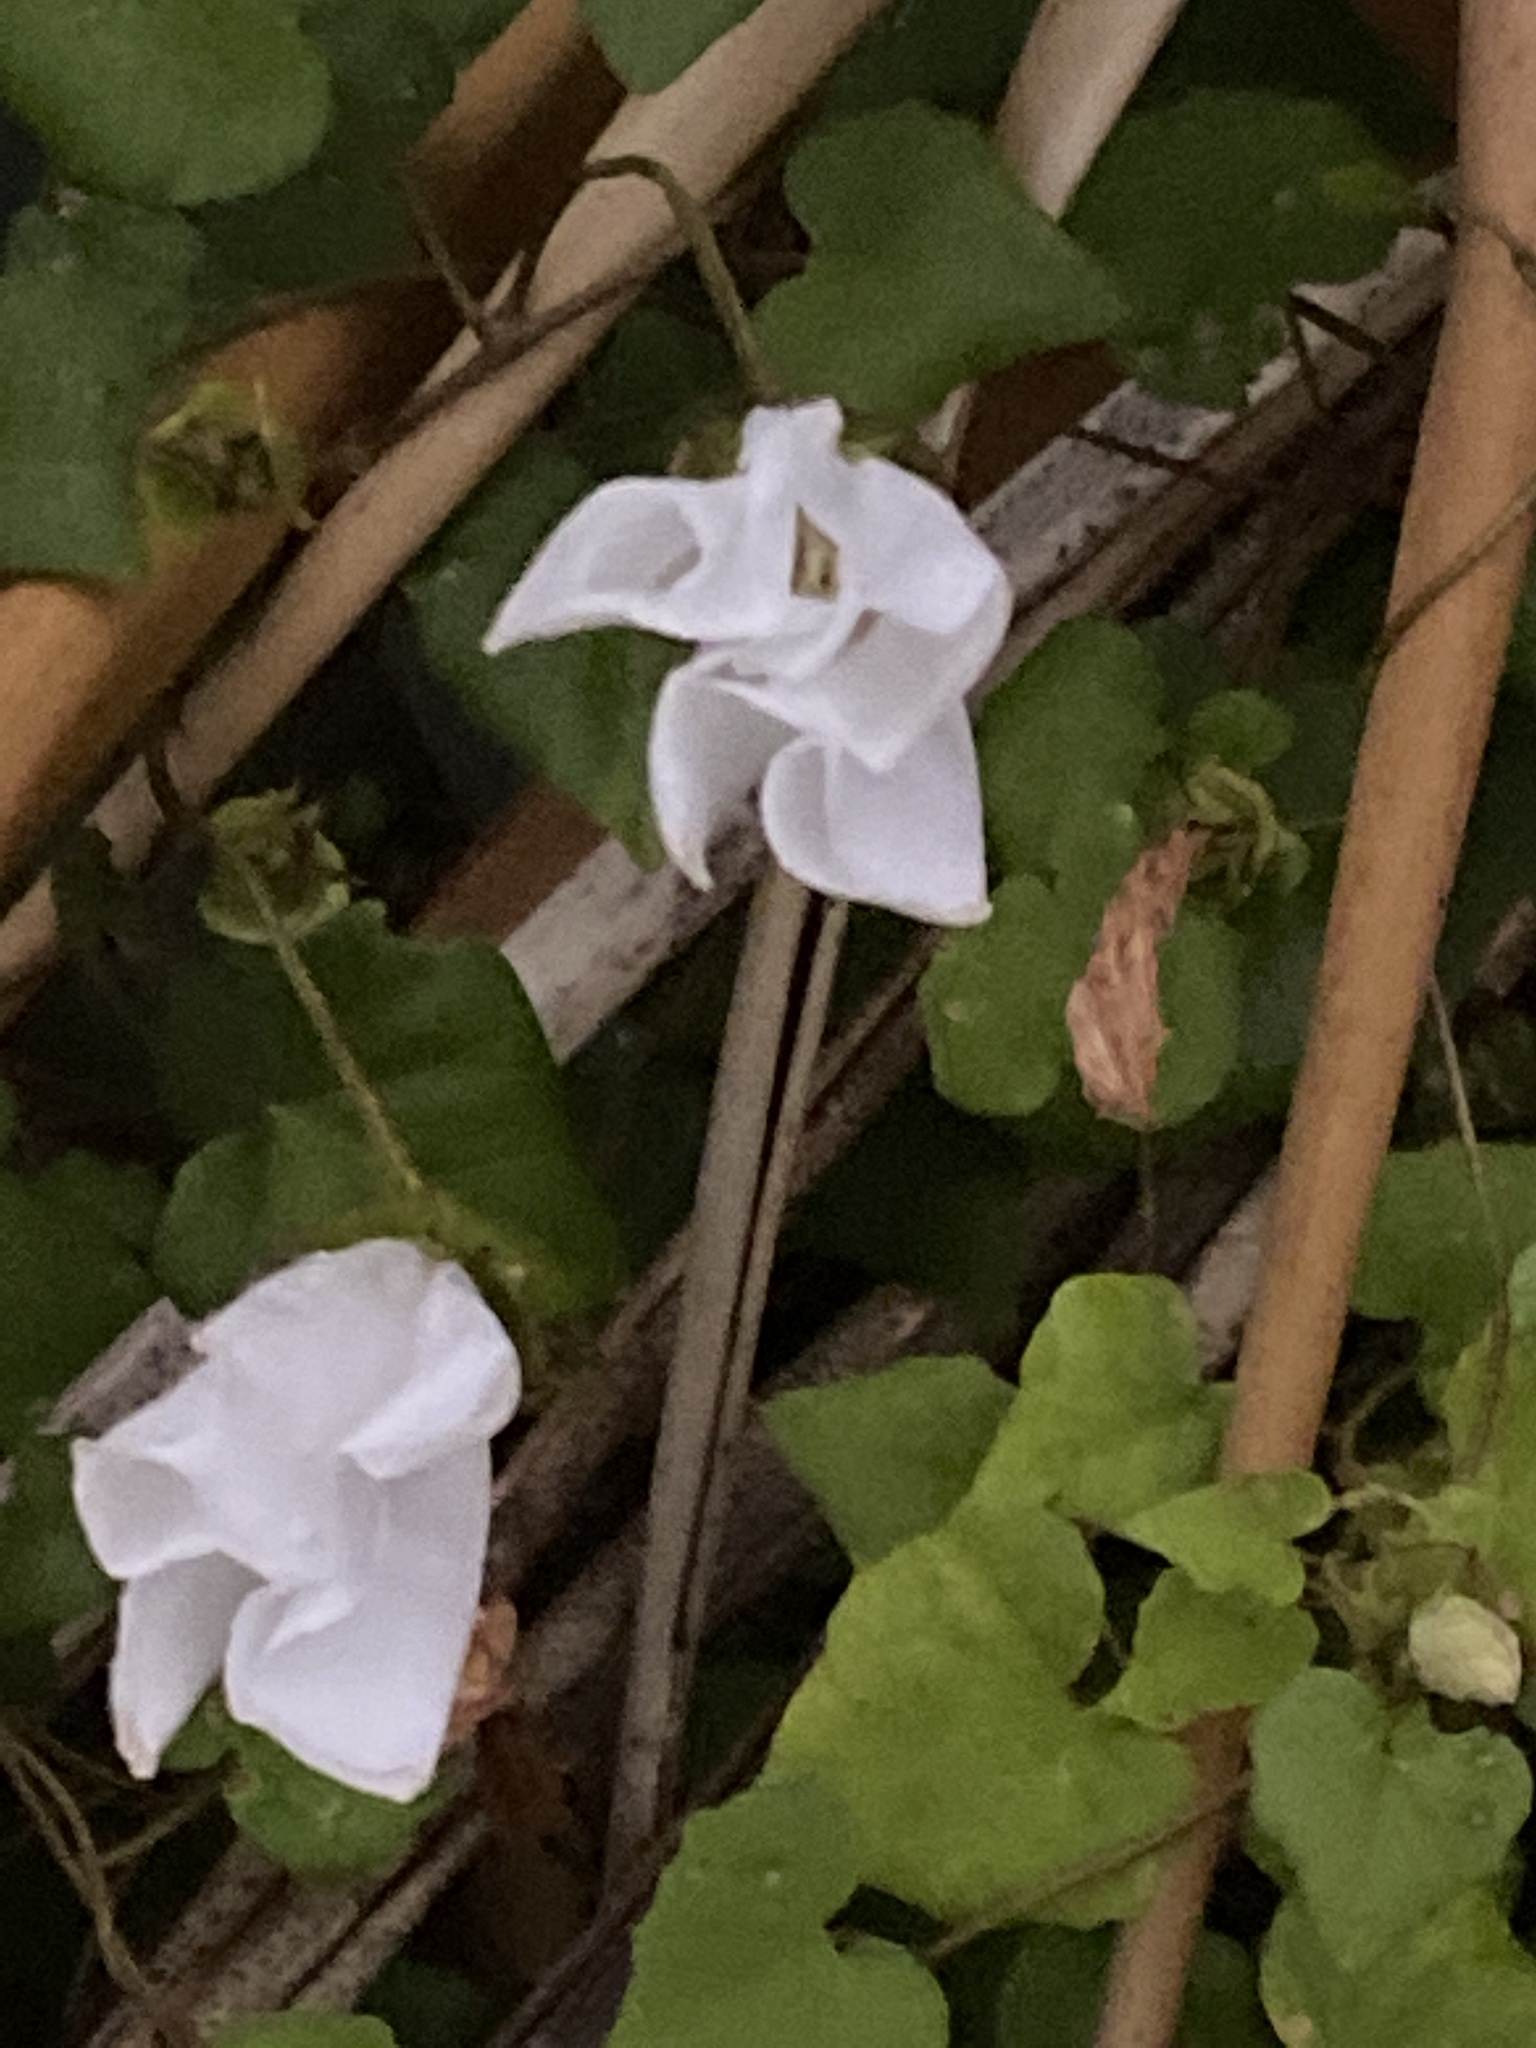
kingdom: Plantae
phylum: Tracheophyta
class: Magnoliopsida
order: Solanales
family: Convolvulaceae
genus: Calystegia
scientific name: Calystegia tuguriorum
